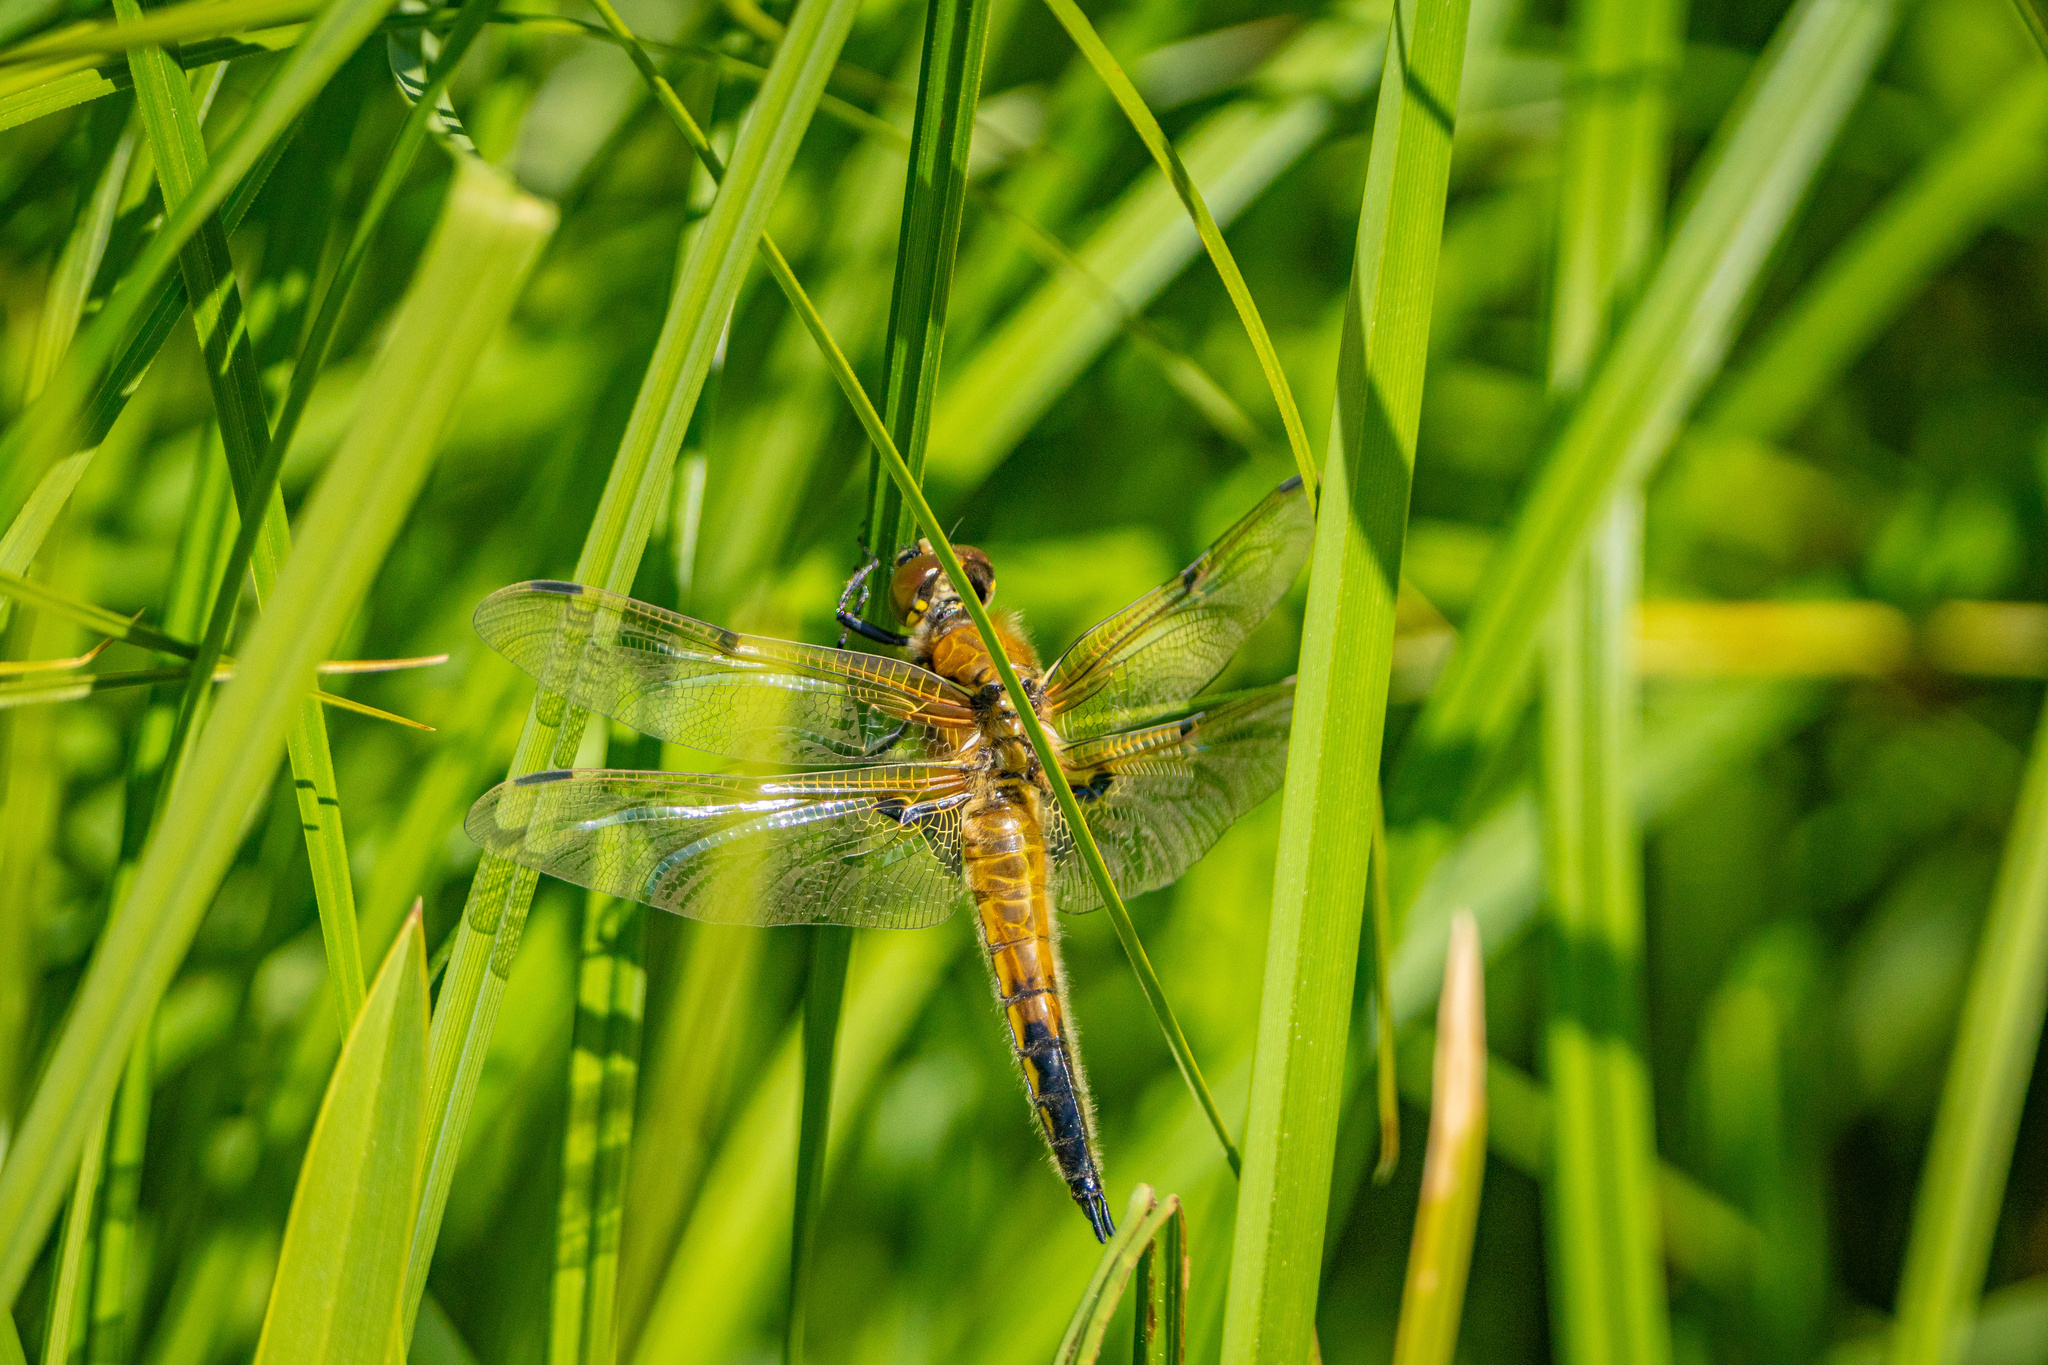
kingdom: Animalia
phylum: Arthropoda
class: Insecta
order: Odonata
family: Libellulidae
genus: Libellula
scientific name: Libellula quadrimaculata
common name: Four-spotted chaser
